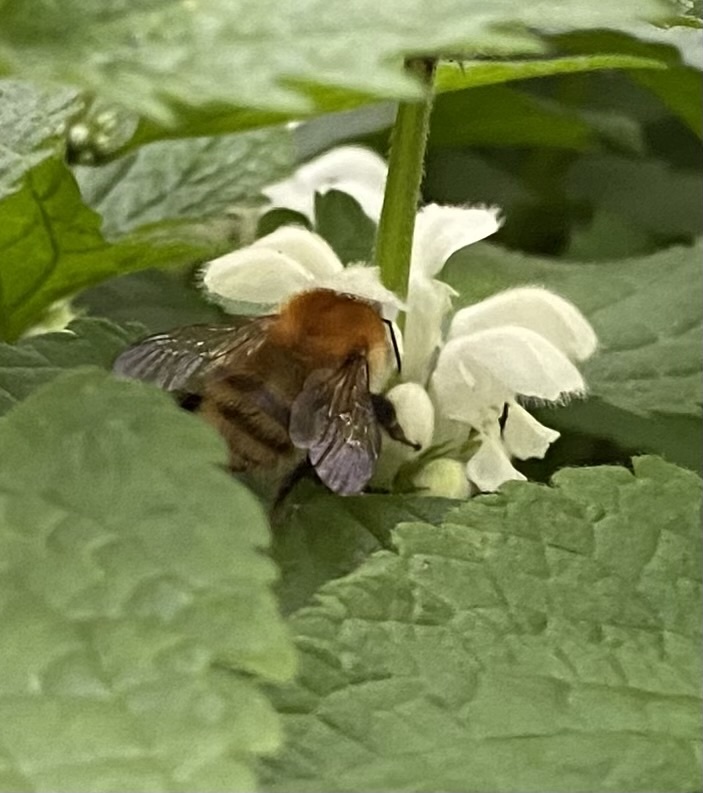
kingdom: Animalia
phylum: Arthropoda
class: Insecta
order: Hymenoptera
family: Apidae
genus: Bombus
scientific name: Bombus pascuorum
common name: Common carder bee
